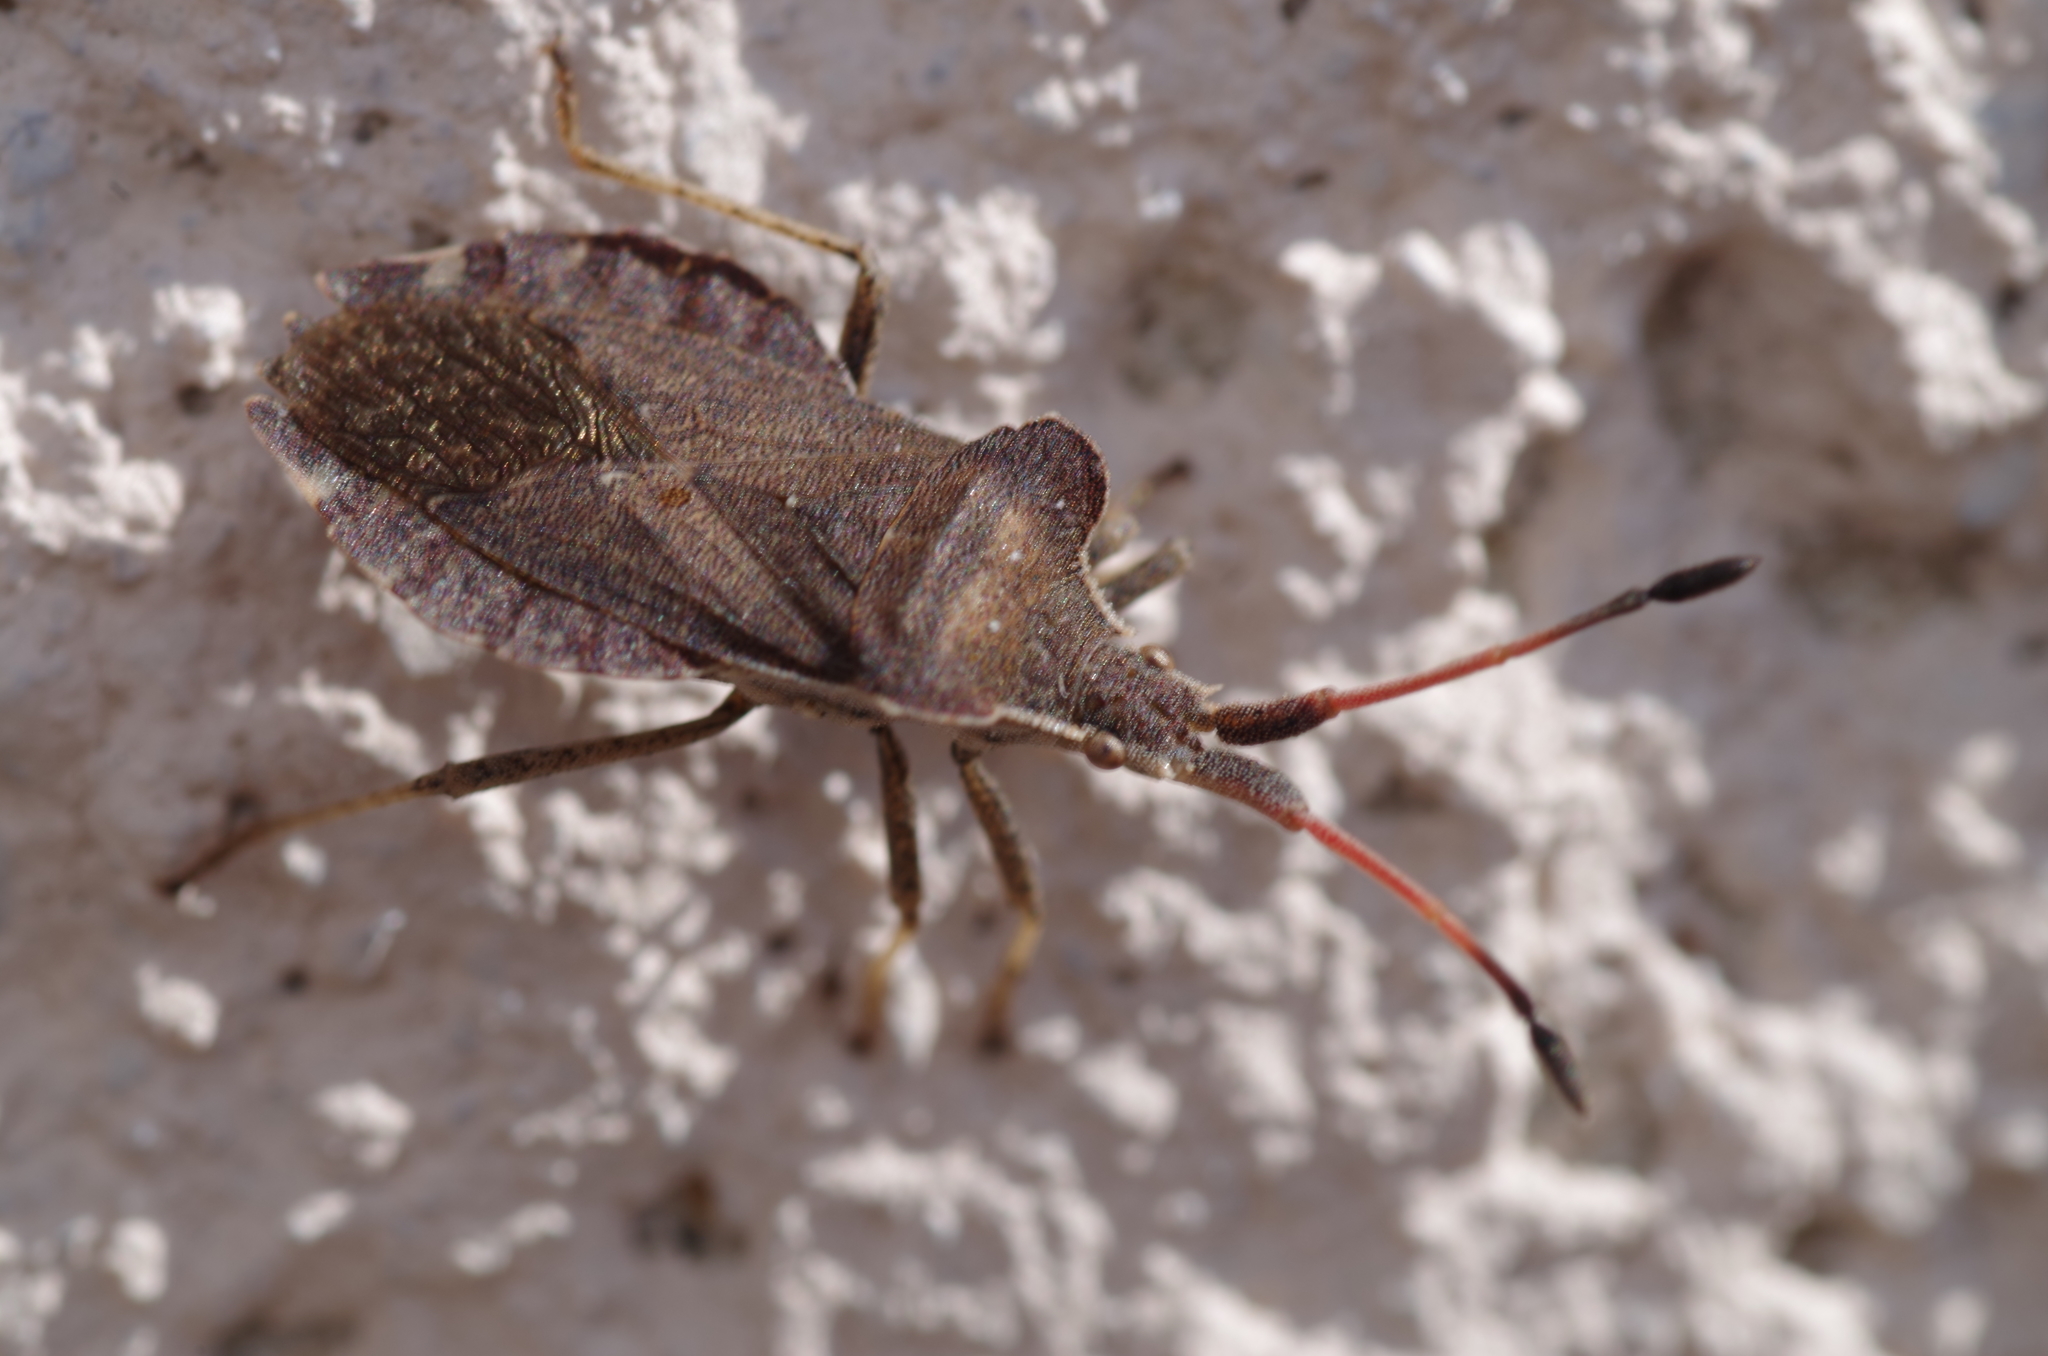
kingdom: Animalia
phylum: Arthropoda
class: Insecta
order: Hemiptera
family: Coreidae
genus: Enoplops
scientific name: Enoplops scapha
